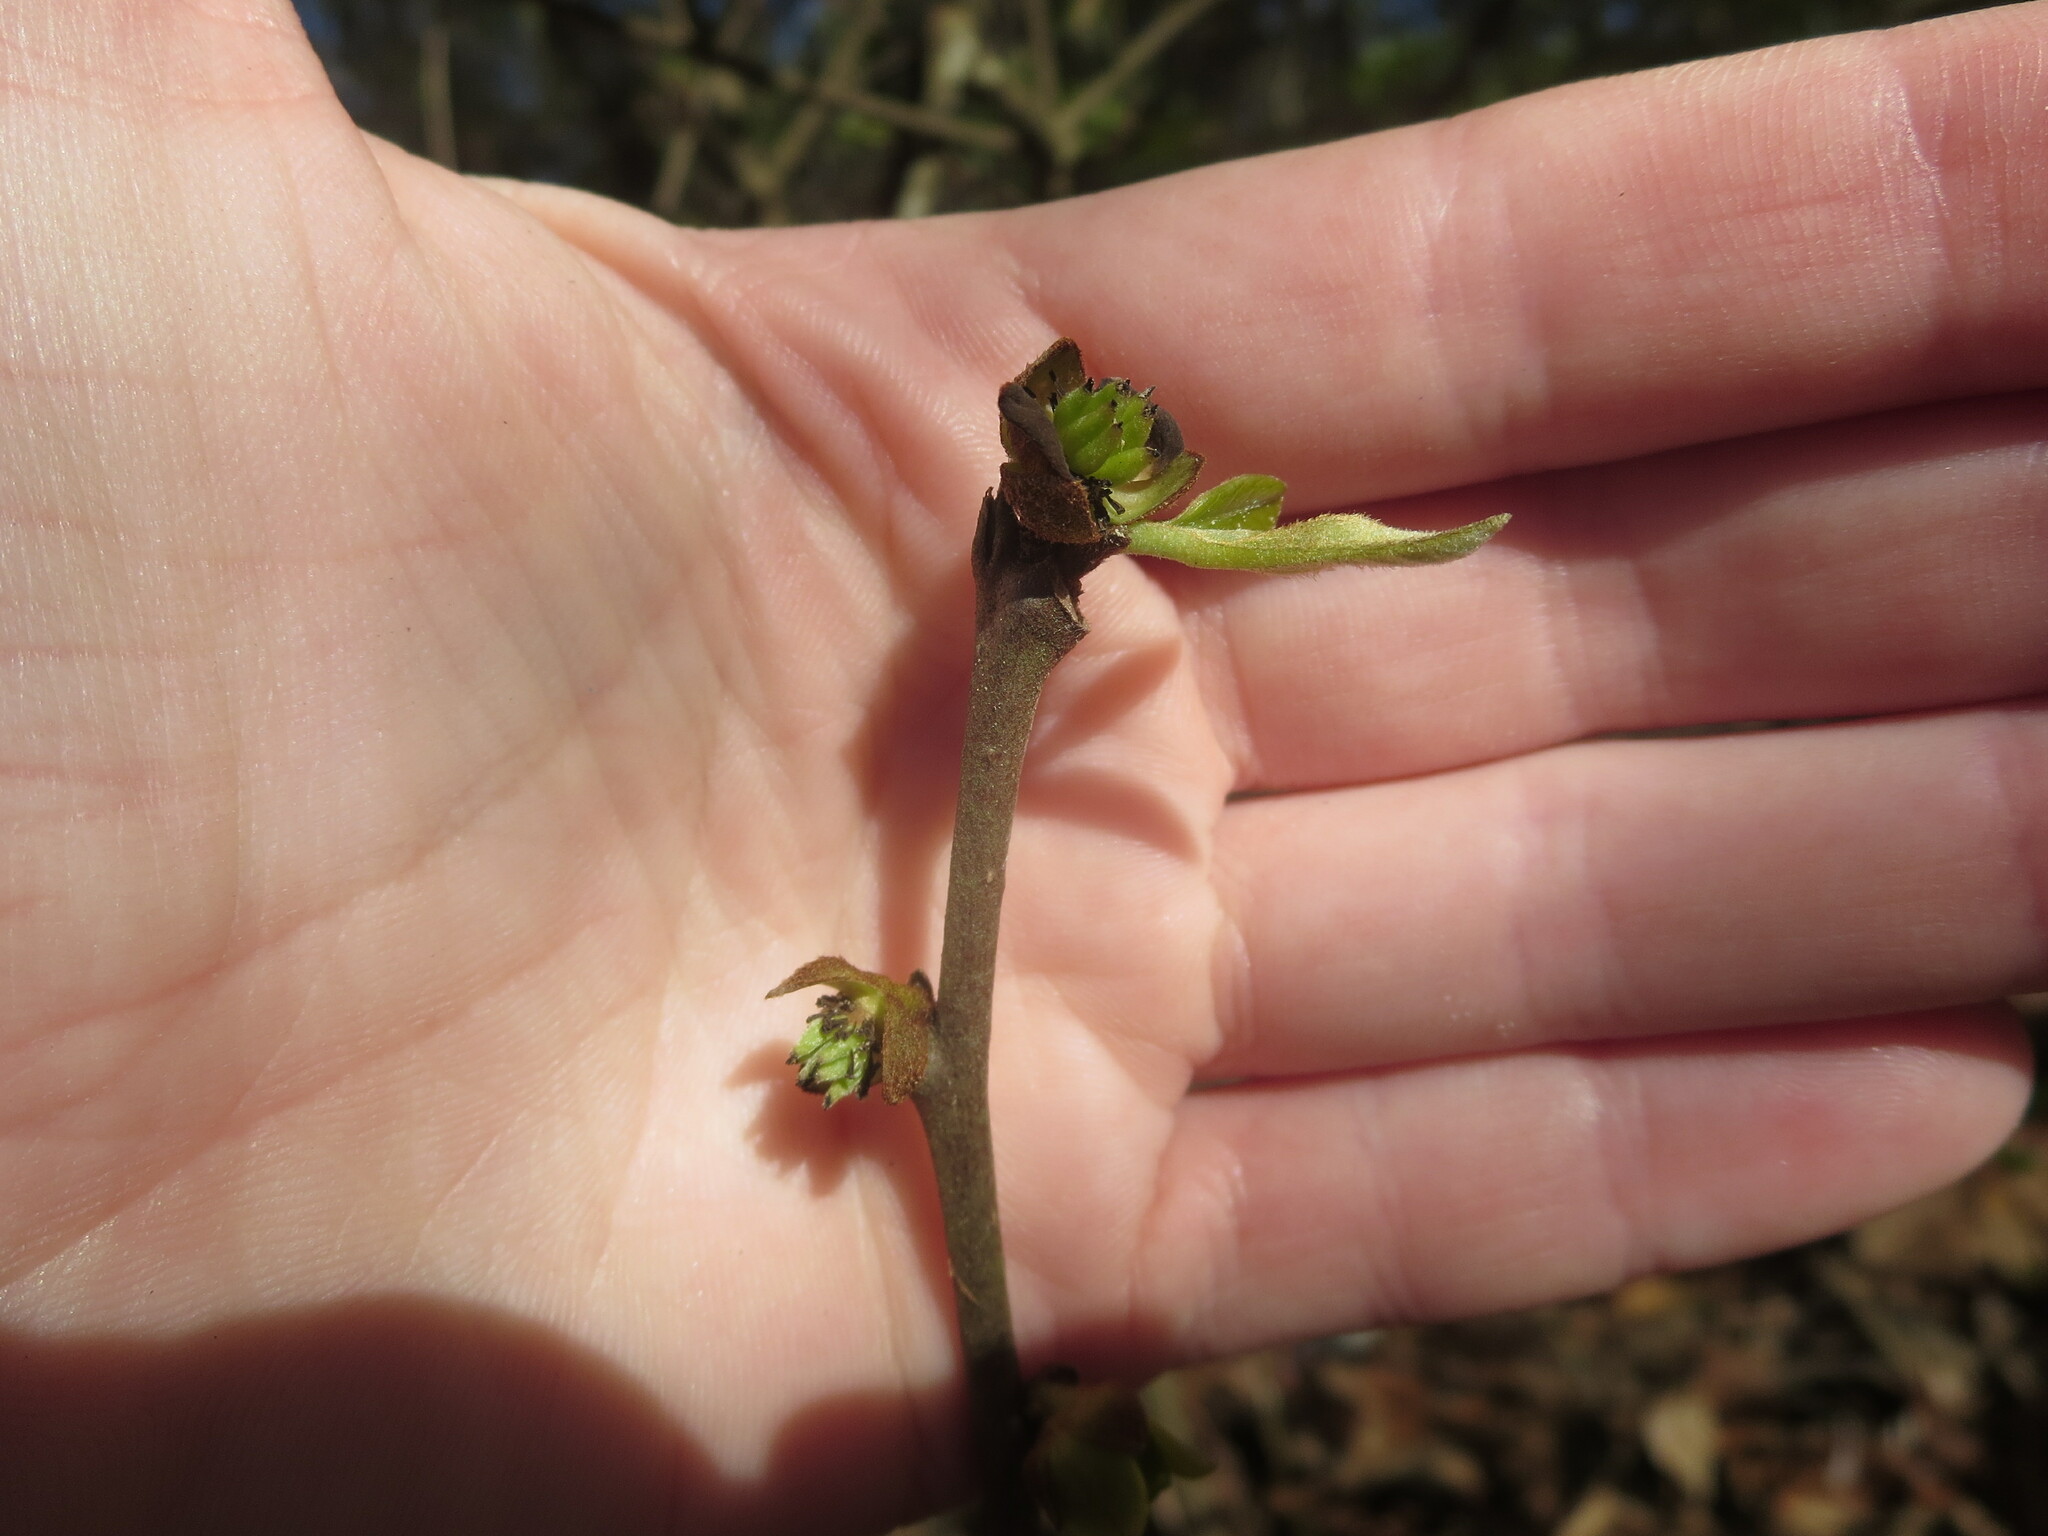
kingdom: Plantae
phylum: Tracheophyta
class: Magnoliopsida
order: Magnoliales
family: Annonaceae
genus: Asimina
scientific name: Asimina parviflora
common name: Dwarf pawpaw
